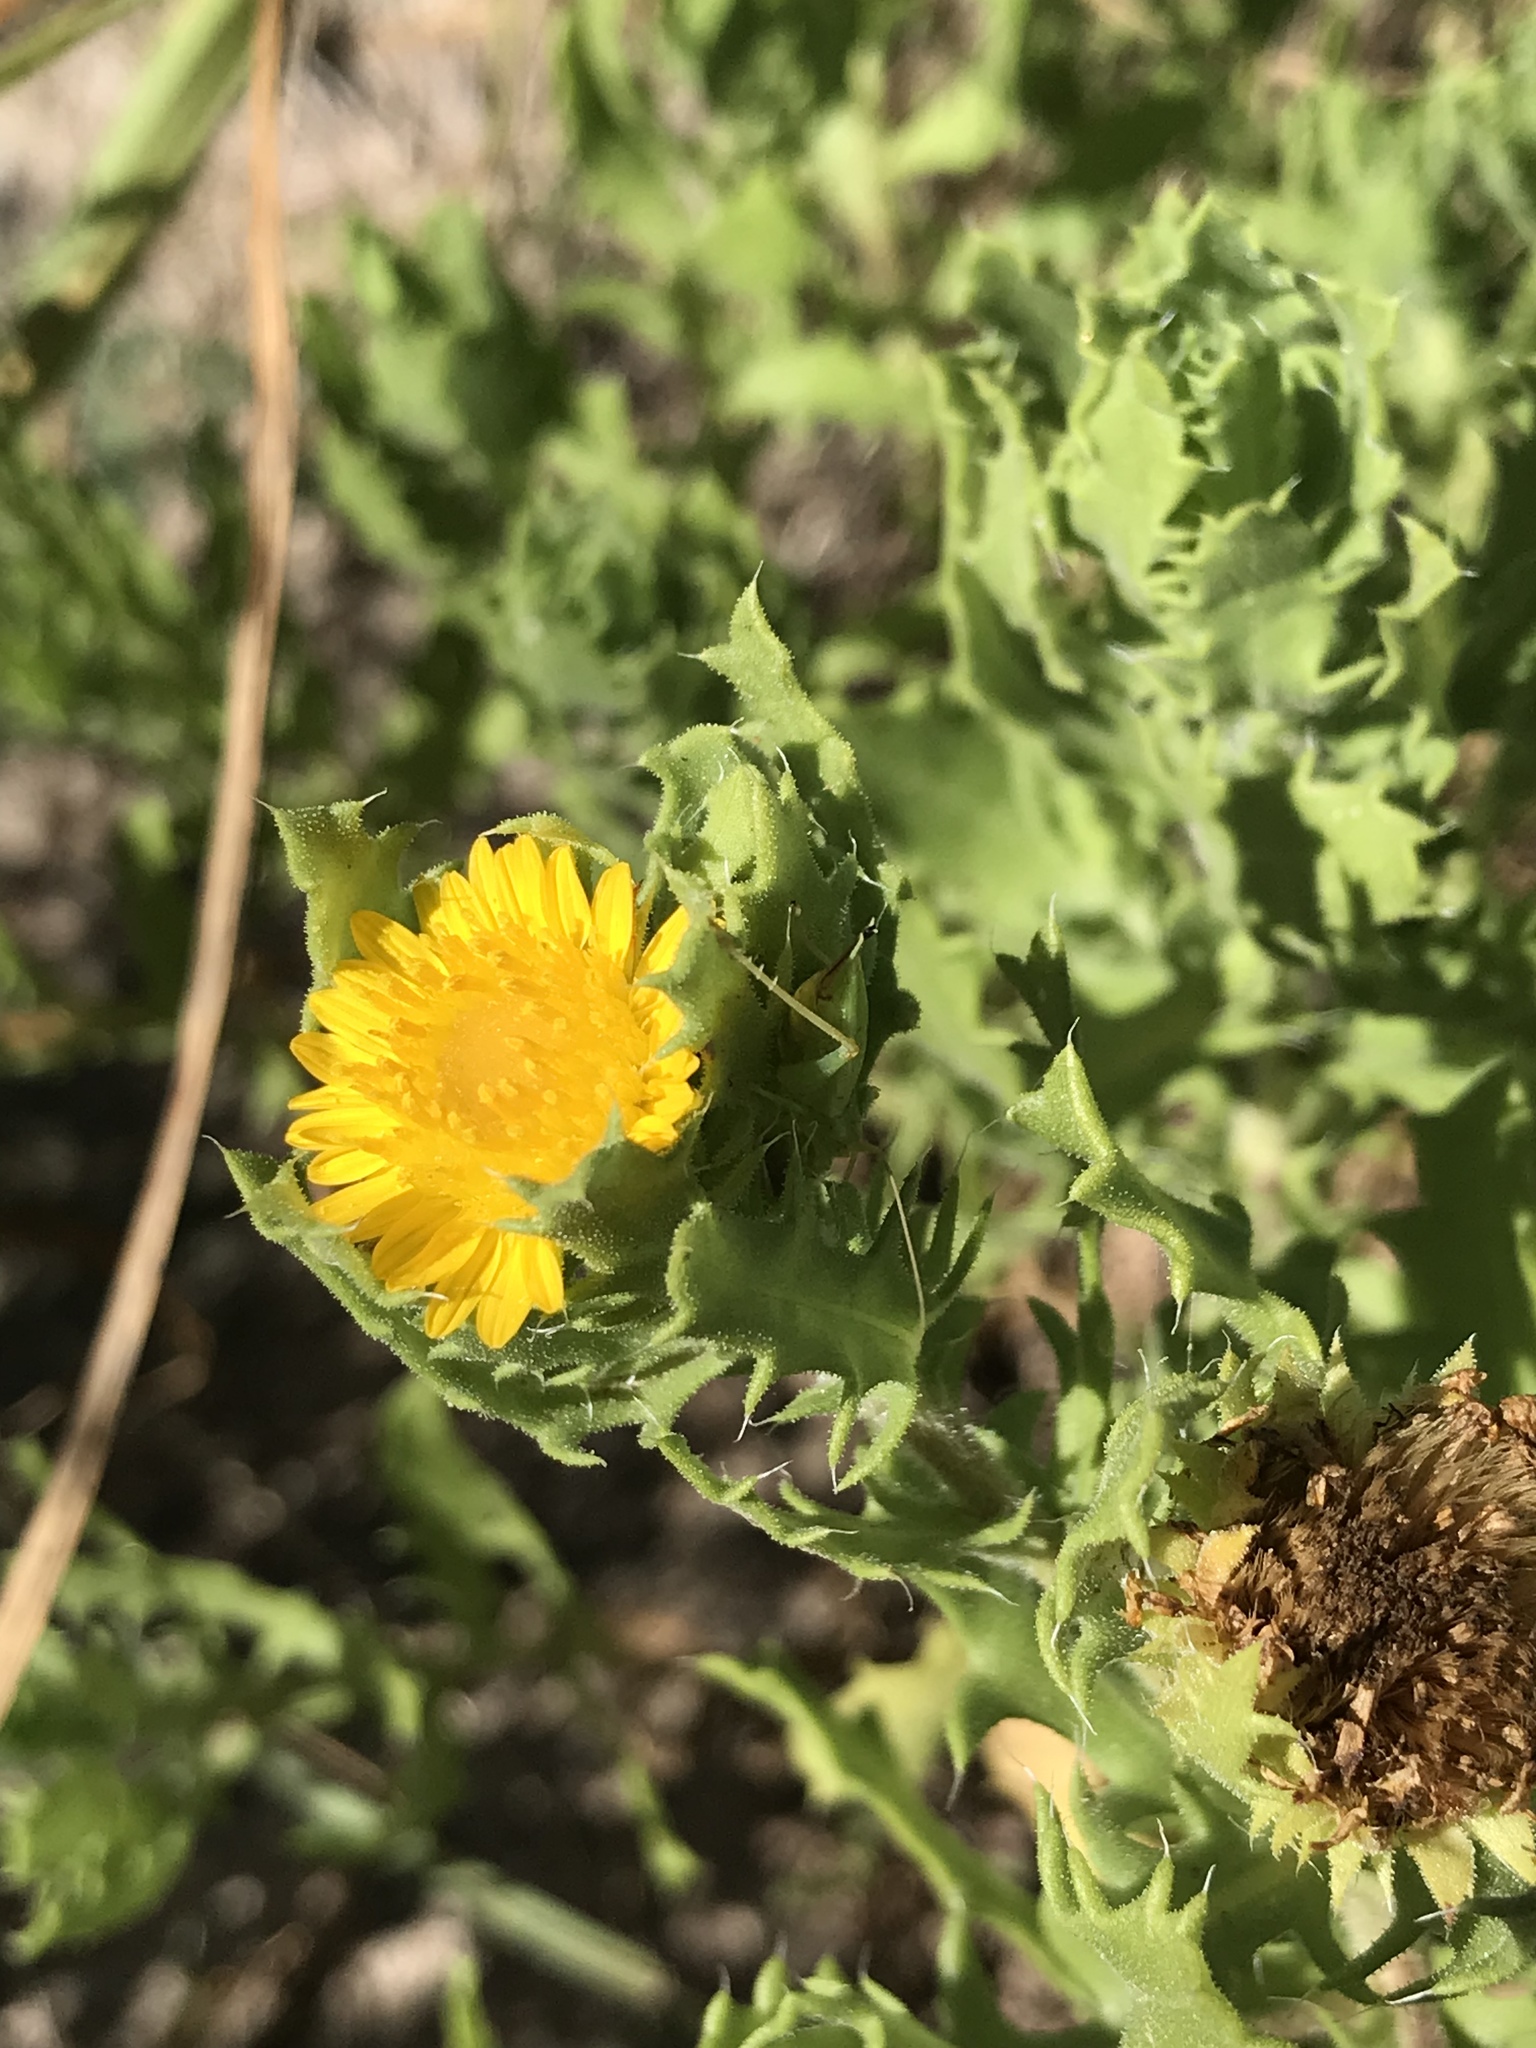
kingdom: Plantae
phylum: Tracheophyta
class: Magnoliopsida
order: Asterales
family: Asteraceae
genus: Rayjacksonia
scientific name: Rayjacksonia phyllocephala
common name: Gulf coast camphor daisy
